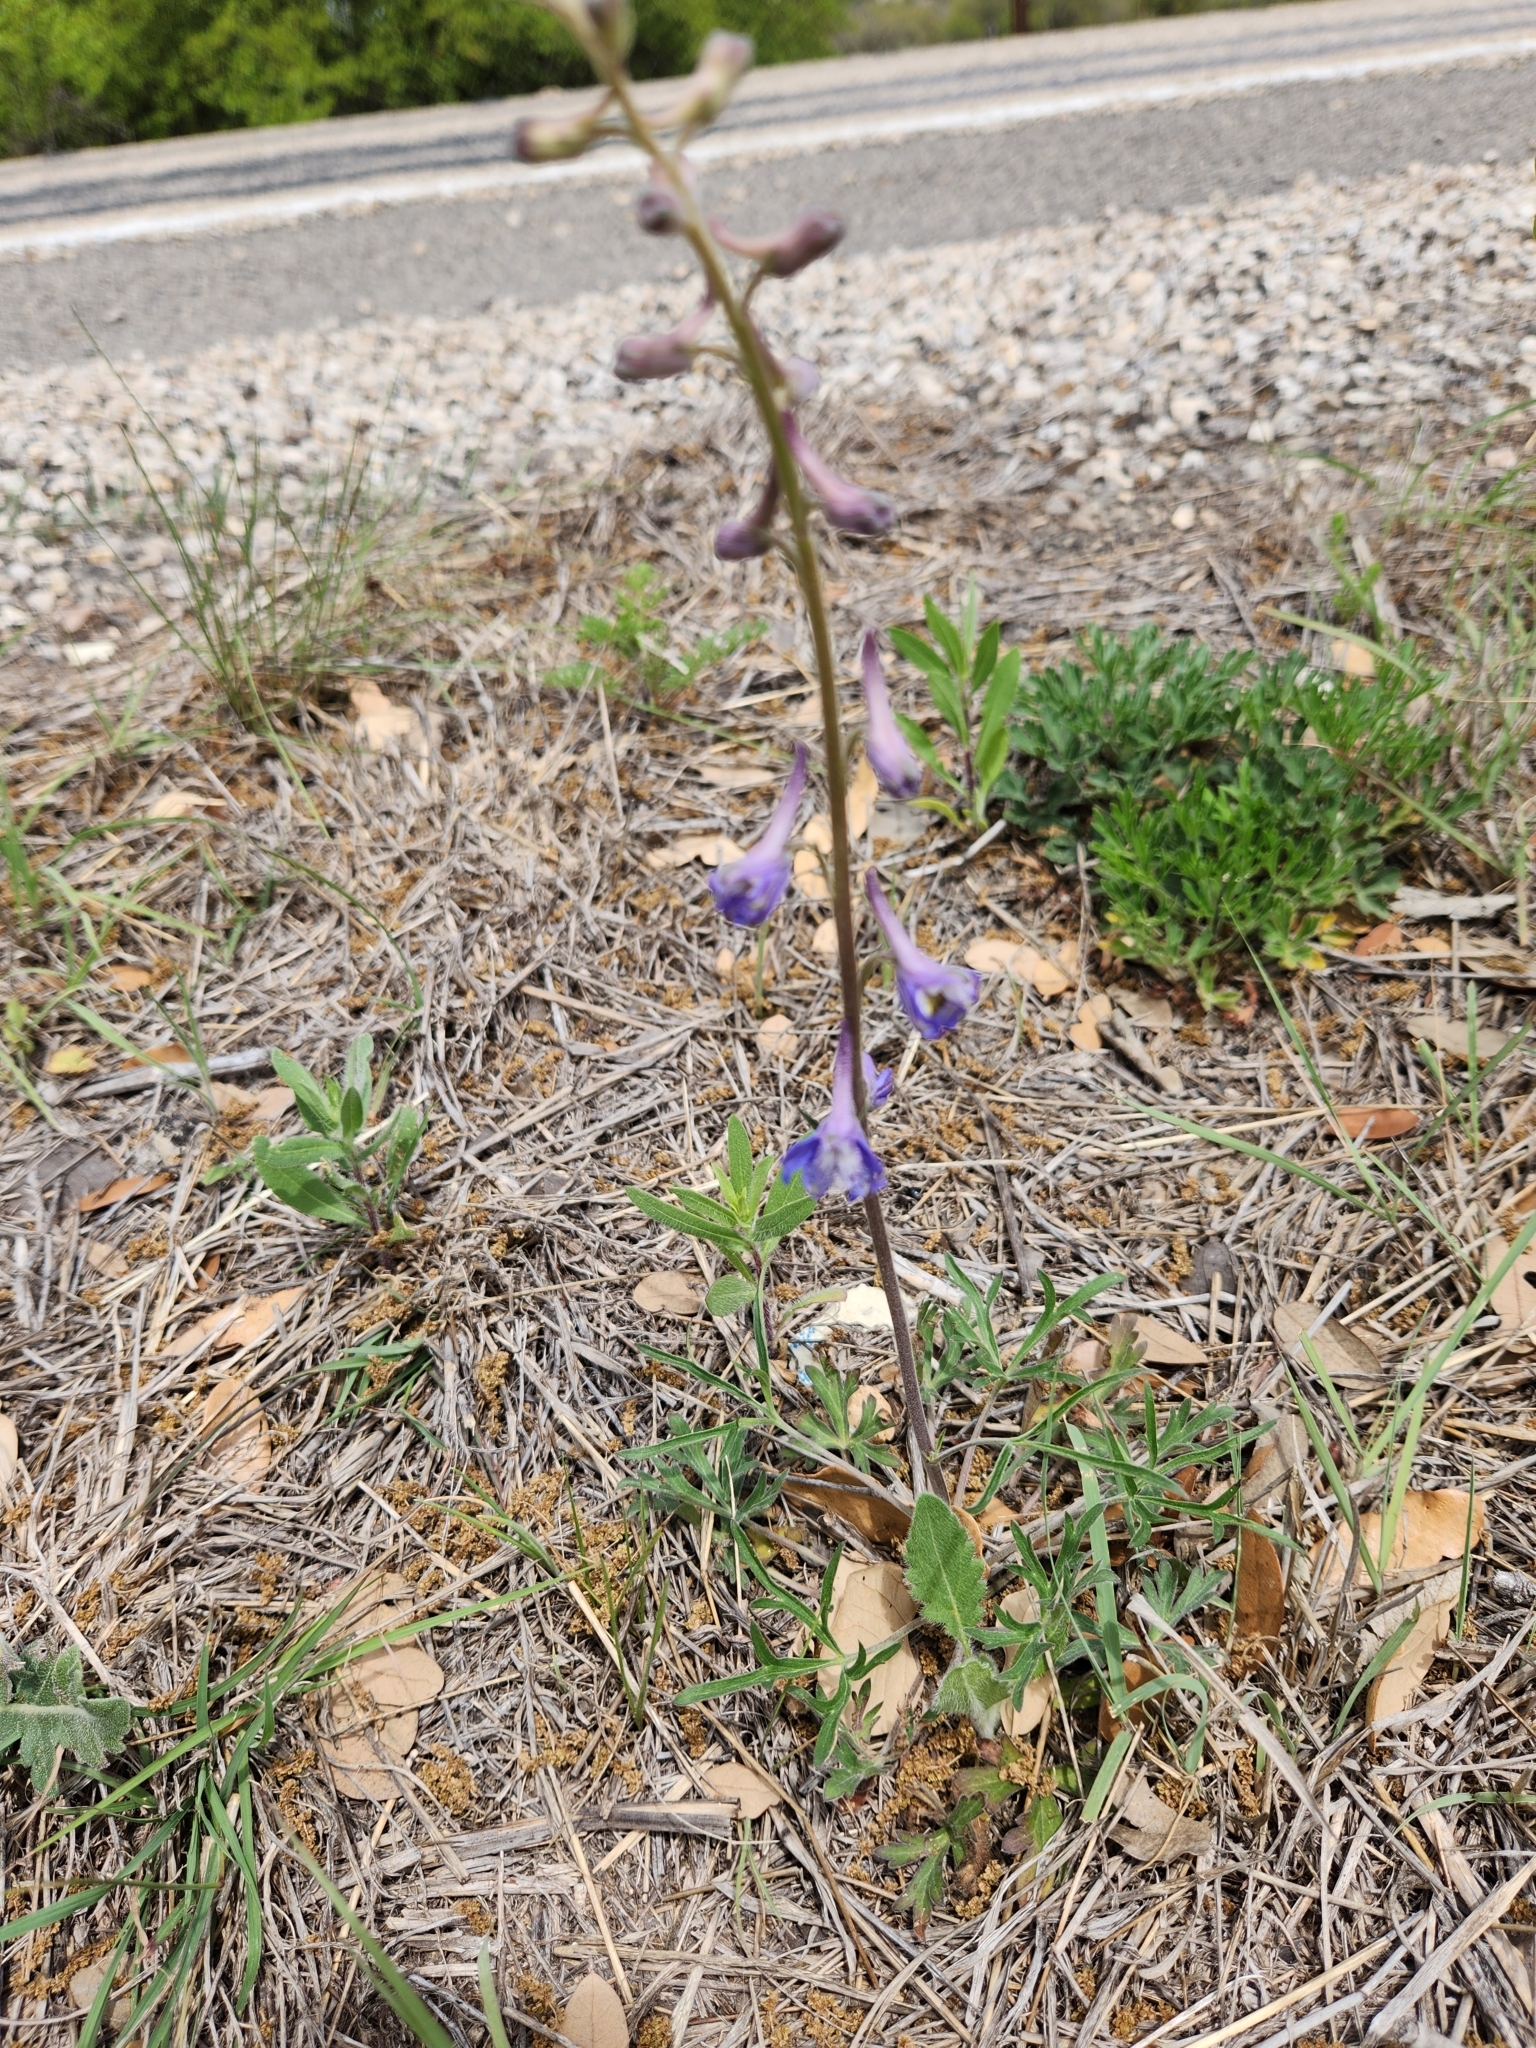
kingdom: Plantae
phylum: Tracheophyta
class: Magnoliopsida
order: Ranunculales
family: Ranunculaceae
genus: Delphinium
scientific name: Delphinium carolinianum
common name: Carolina larkspur
